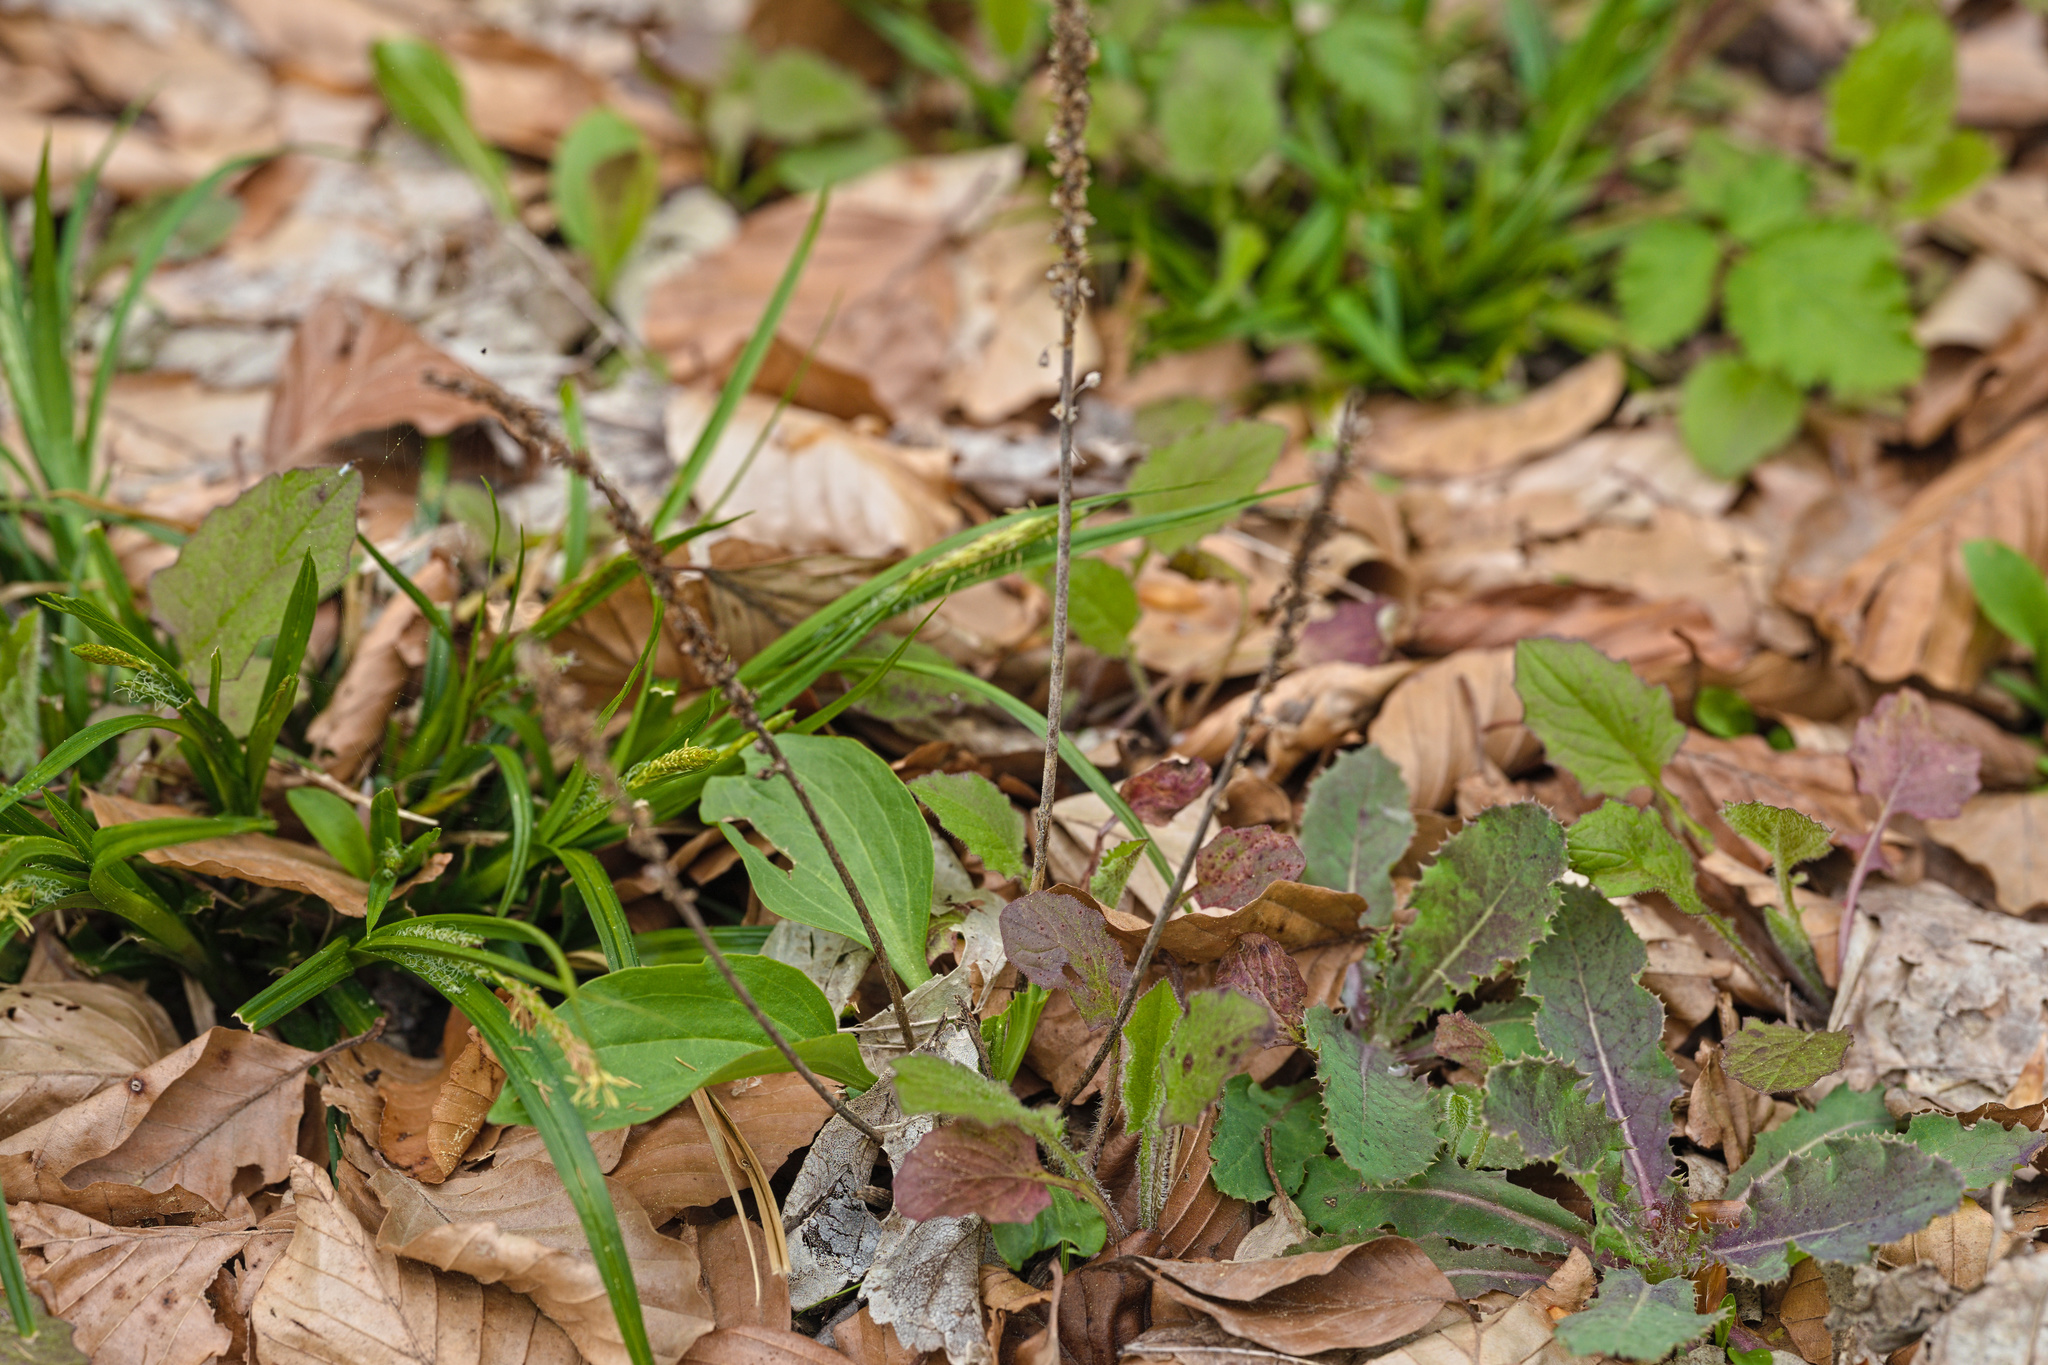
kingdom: Plantae
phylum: Tracheophyta
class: Magnoliopsida
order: Lamiales
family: Plantaginaceae
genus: Plantago
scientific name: Plantago major
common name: Common plantain
